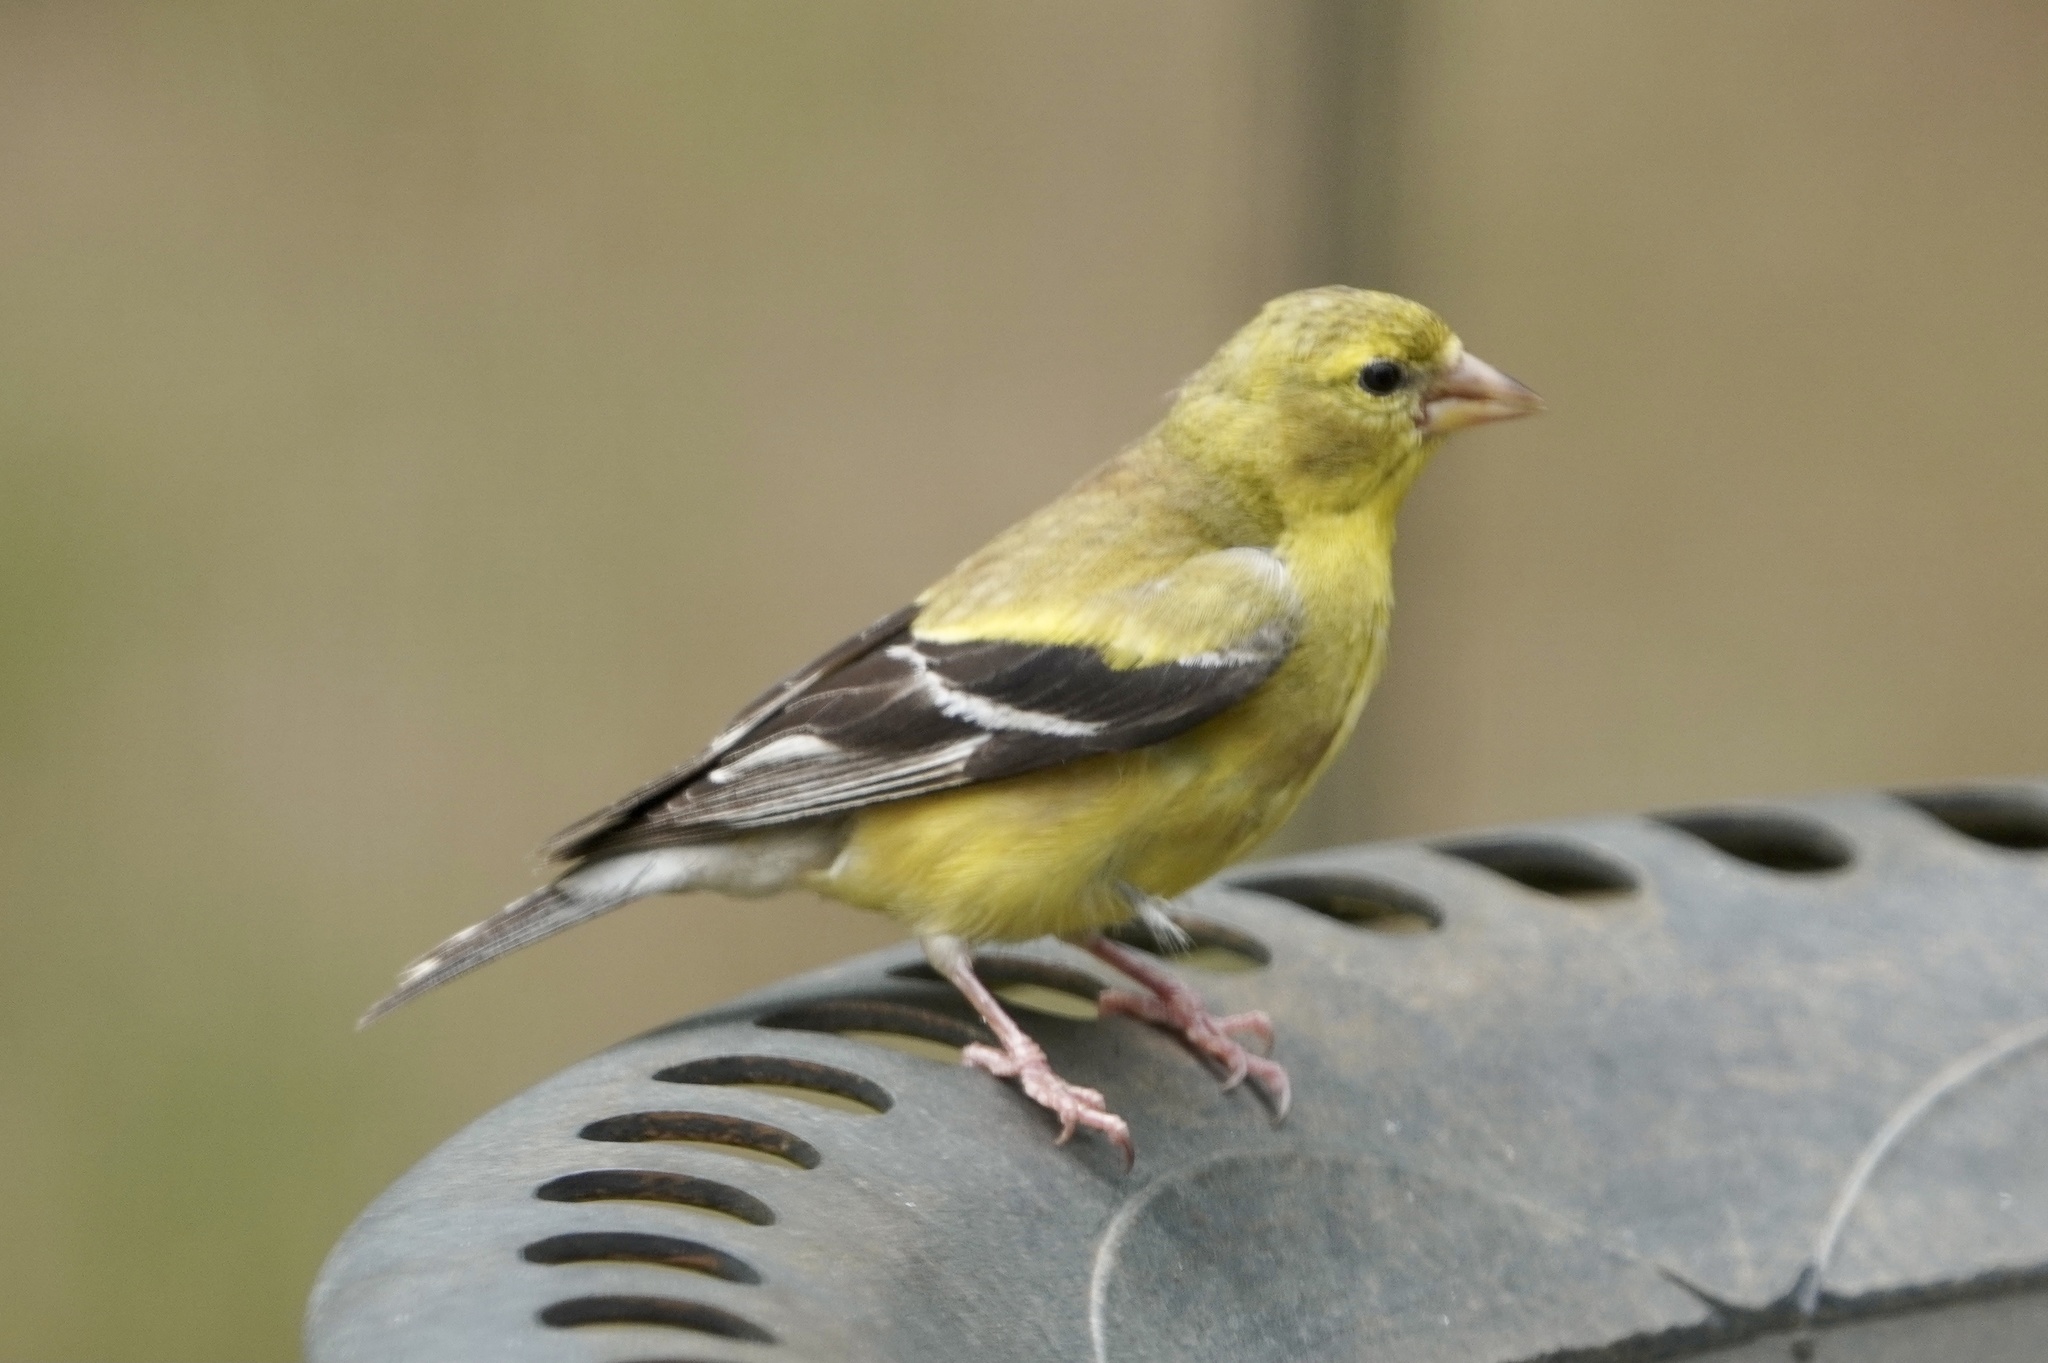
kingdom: Animalia
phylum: Chordata
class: Aves
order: Passeriformes
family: Fringillidae
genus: Spinus
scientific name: Spinus tristis
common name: American goldfinch
